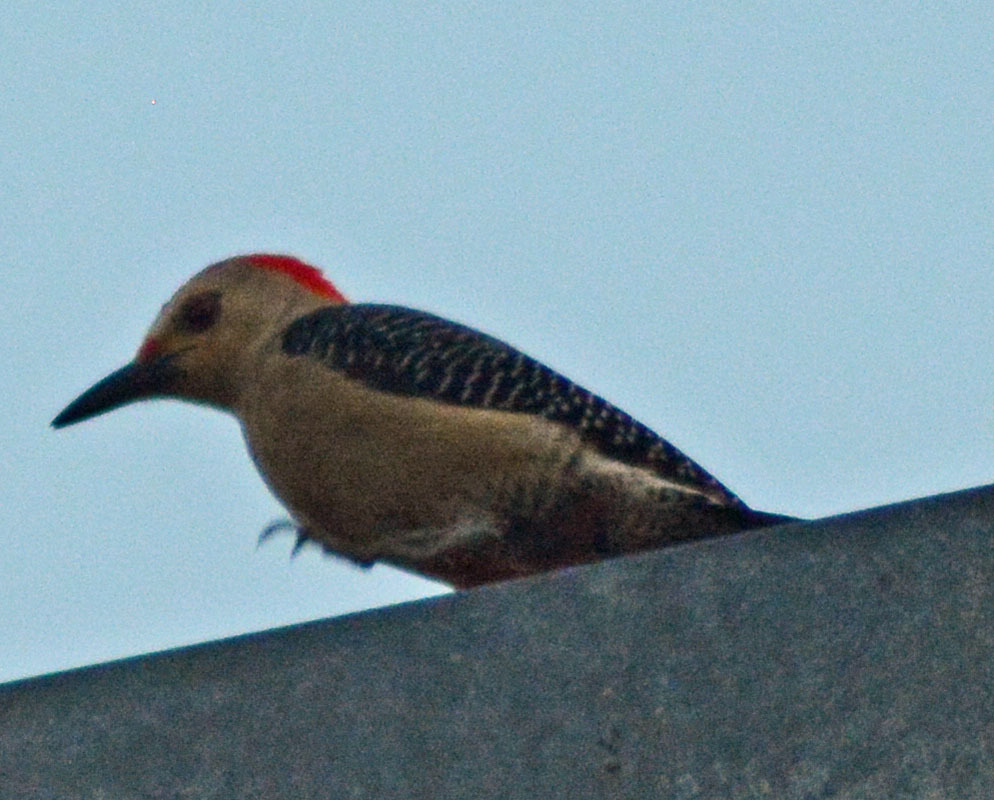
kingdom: Animalia
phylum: Chordata
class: Aves
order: Piciformes
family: Picidae
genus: Melanerpes
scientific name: Melanerpes aurifrons
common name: Golden-fronted woodpecker
